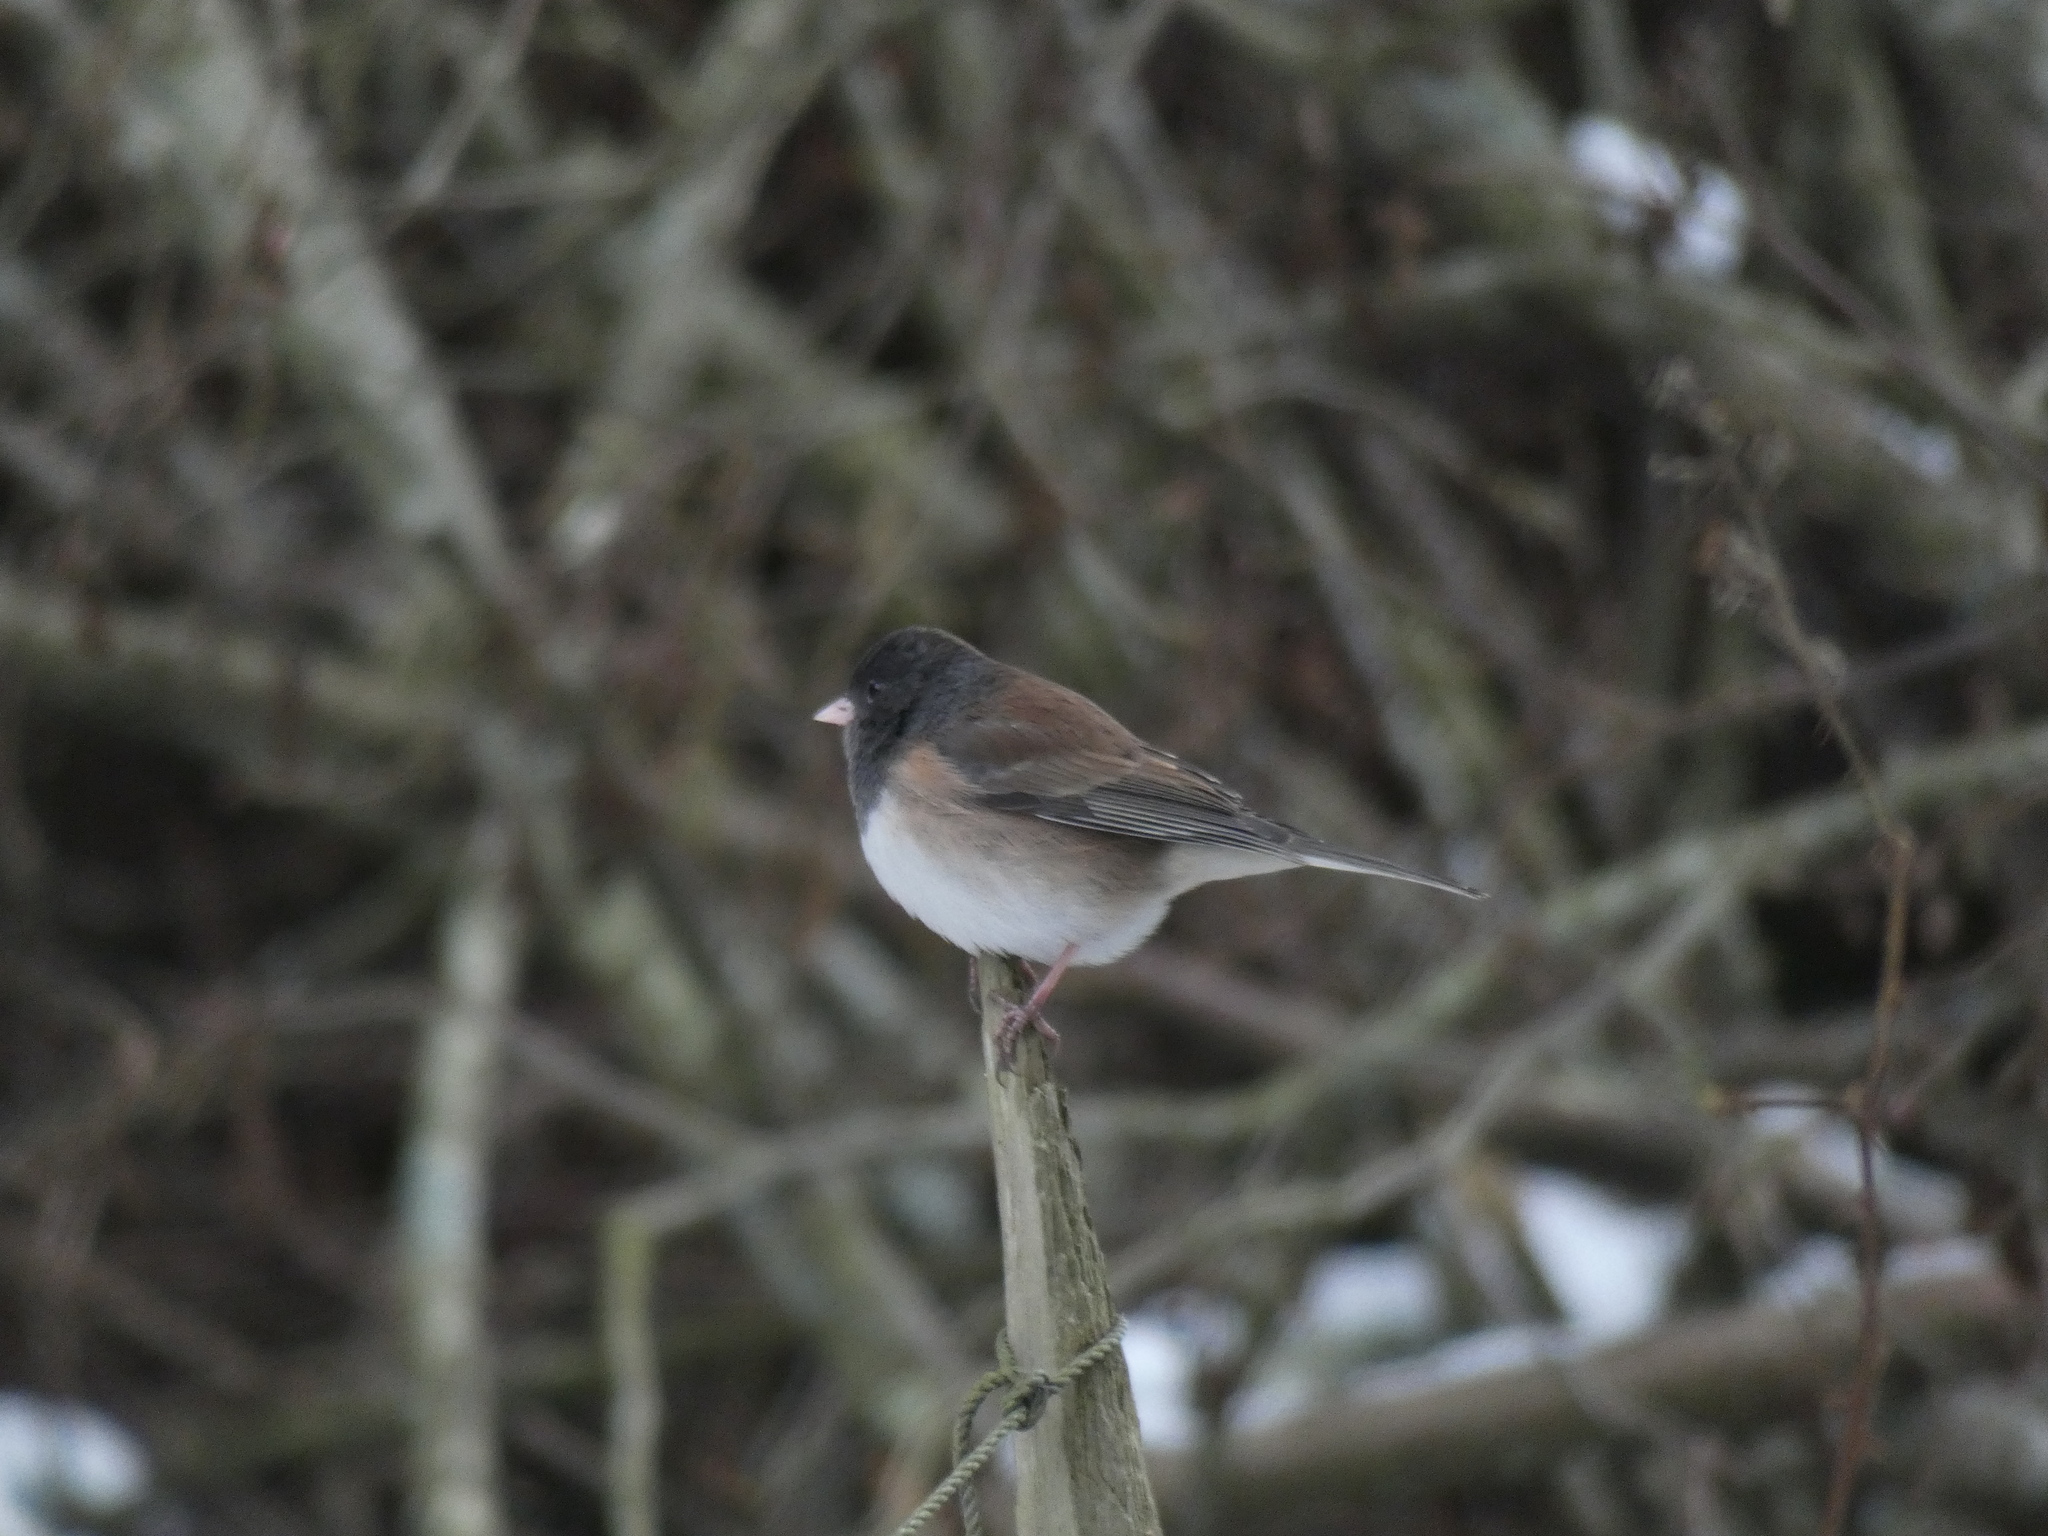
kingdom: Animalia
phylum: Chordata
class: Aves
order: Passeriformes
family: Passerellidae
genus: Junco
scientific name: Junco hyemalis
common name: Dark-eyed junco
